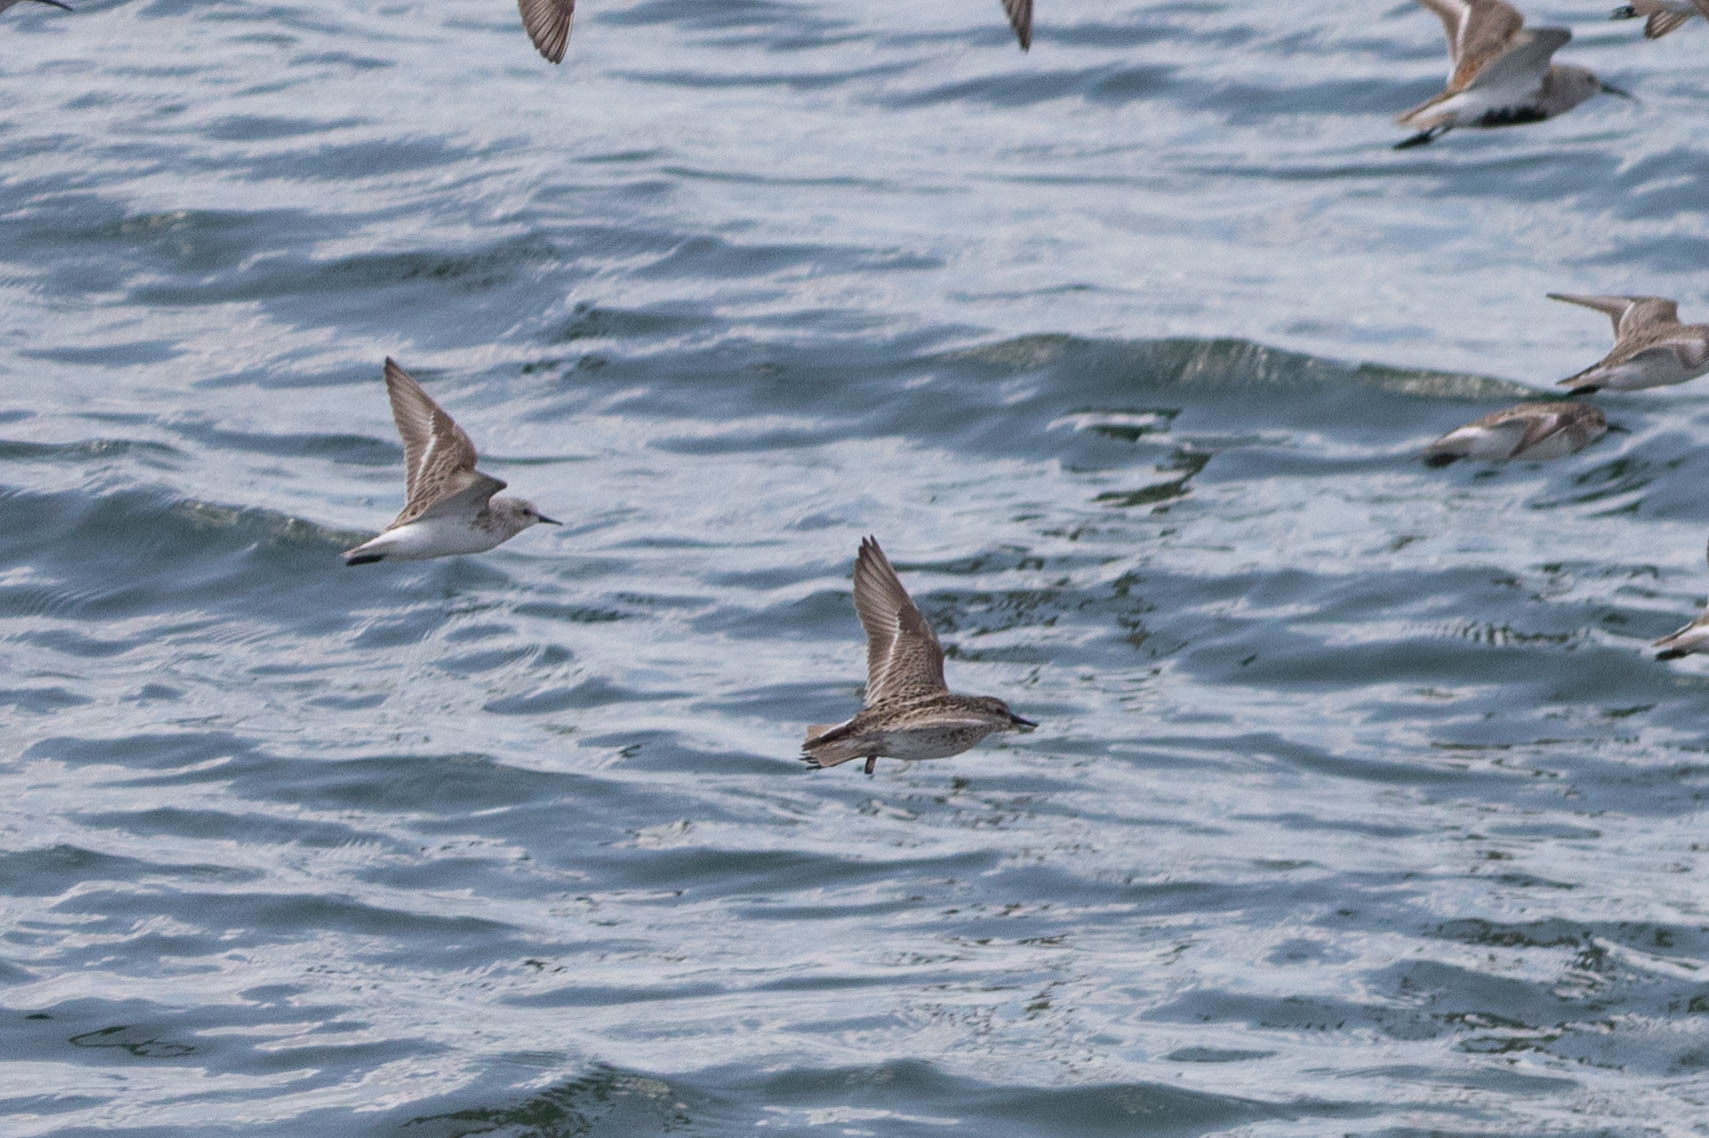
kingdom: Animalia
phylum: Chordata
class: Aves
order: Charadriiformes
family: Scolopacidae
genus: Calidris
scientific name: Calidris pusilla
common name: Semipalmated sandpiper
